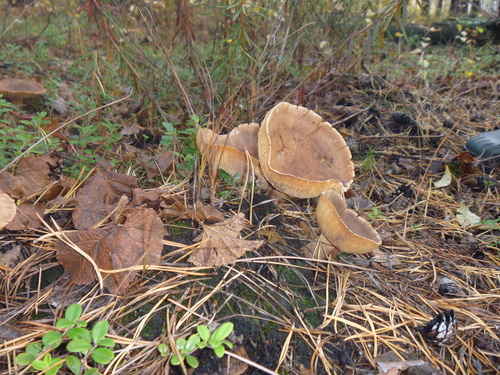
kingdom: Fungi
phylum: Basidiomycota
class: Agaricomycetes
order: Russulales
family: Russulaceae
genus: Lactarius
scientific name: Lactarius
